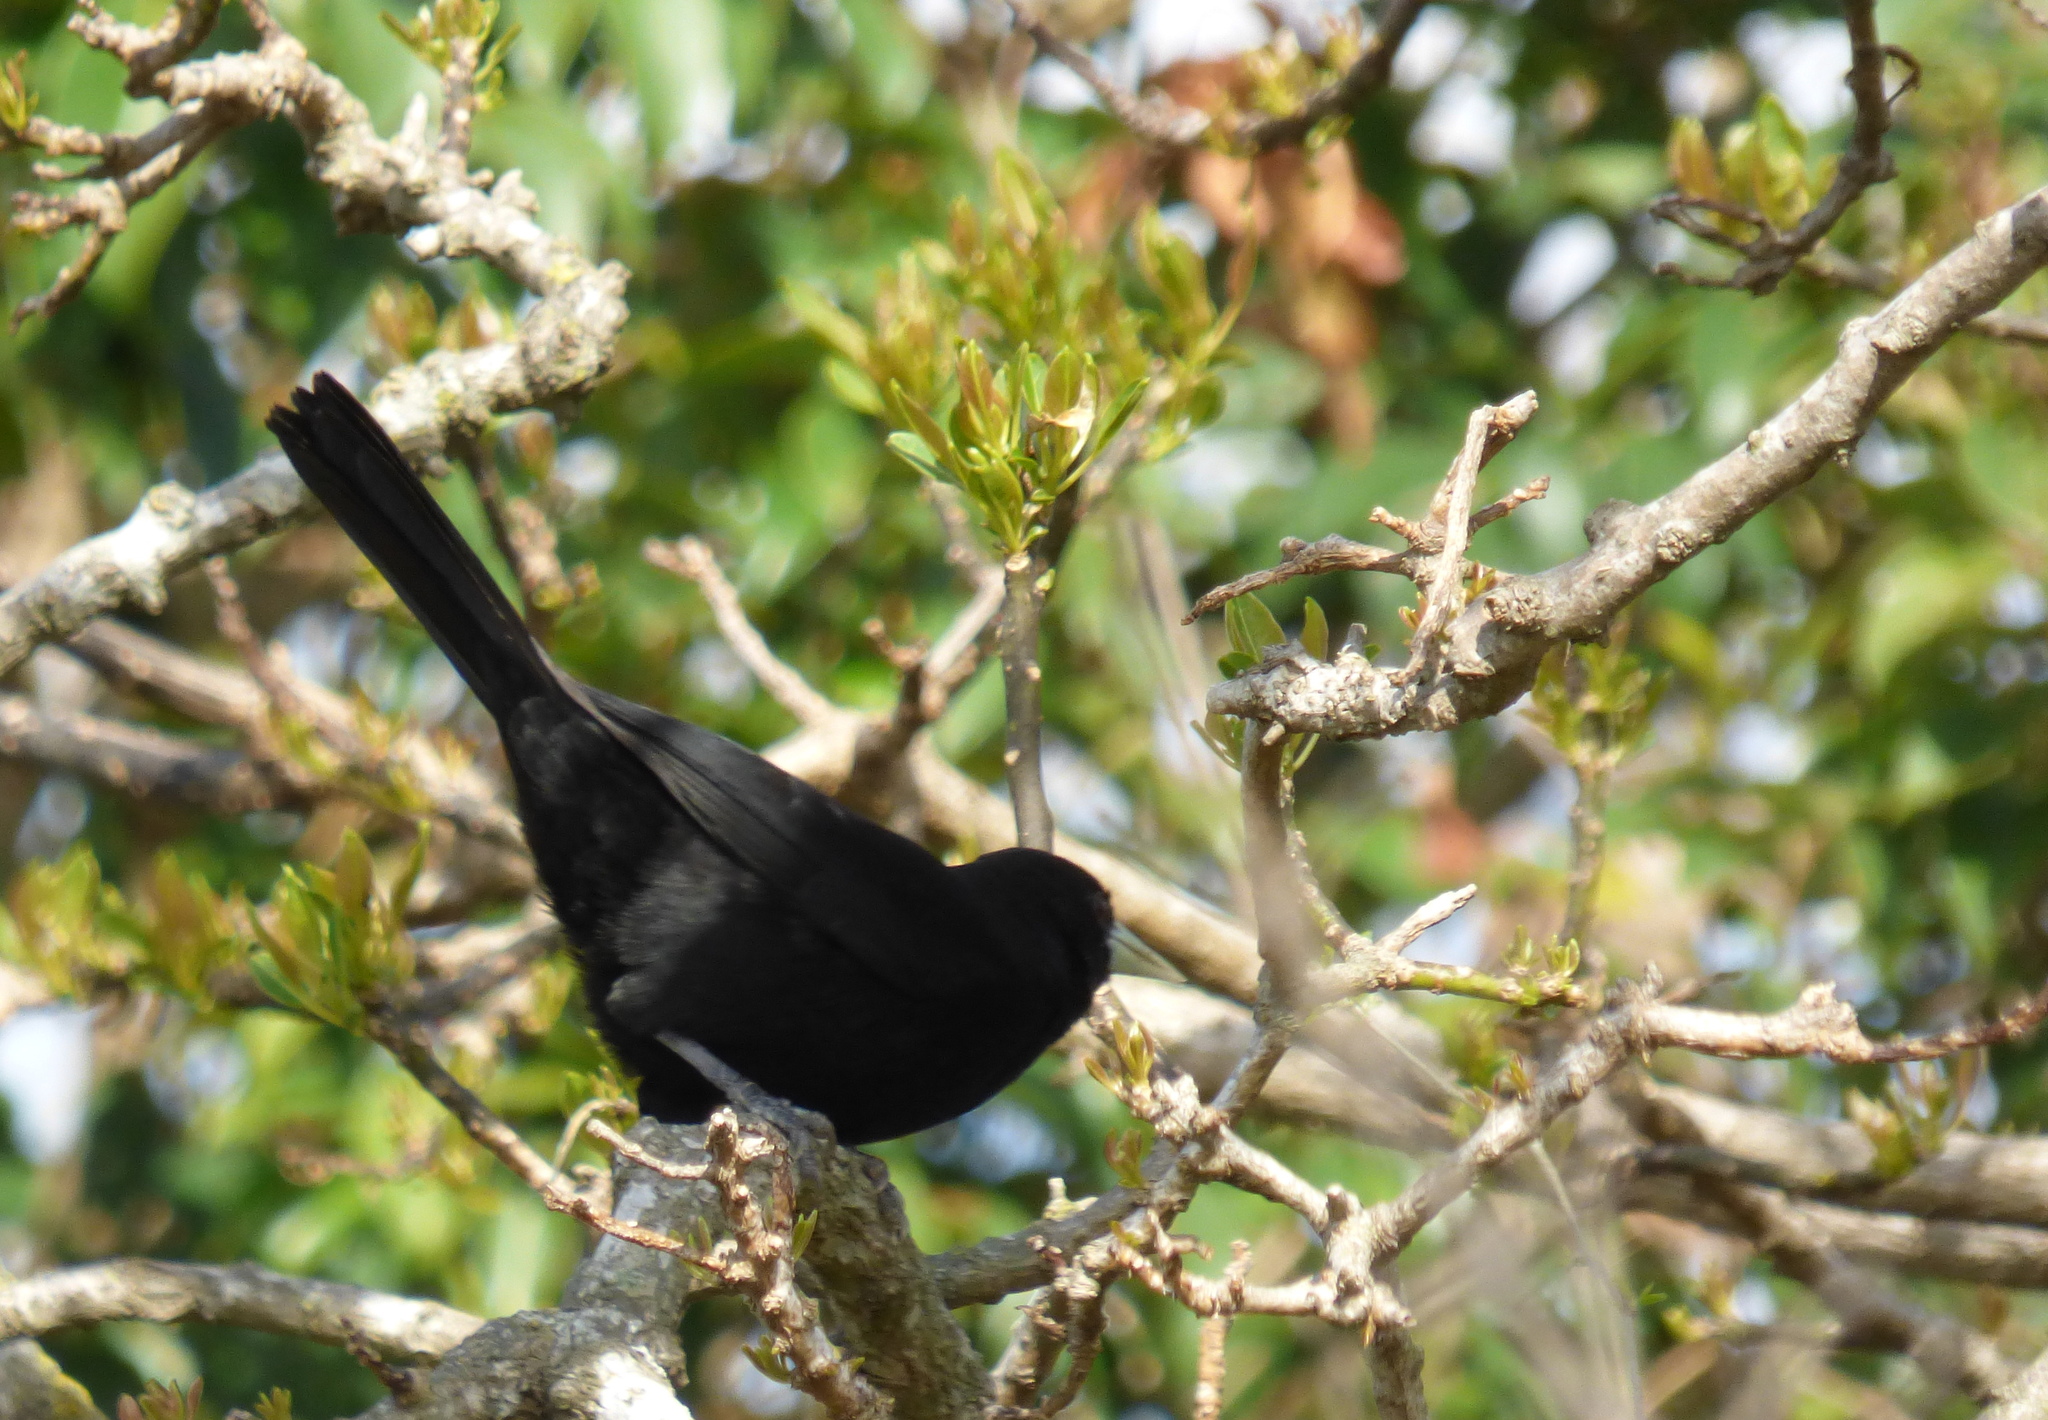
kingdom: Animalia
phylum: Chordata
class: Aves
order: Passeriformes
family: Icteridae
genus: Cacicus
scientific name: Cacicus solitarius
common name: Solitary cacique
